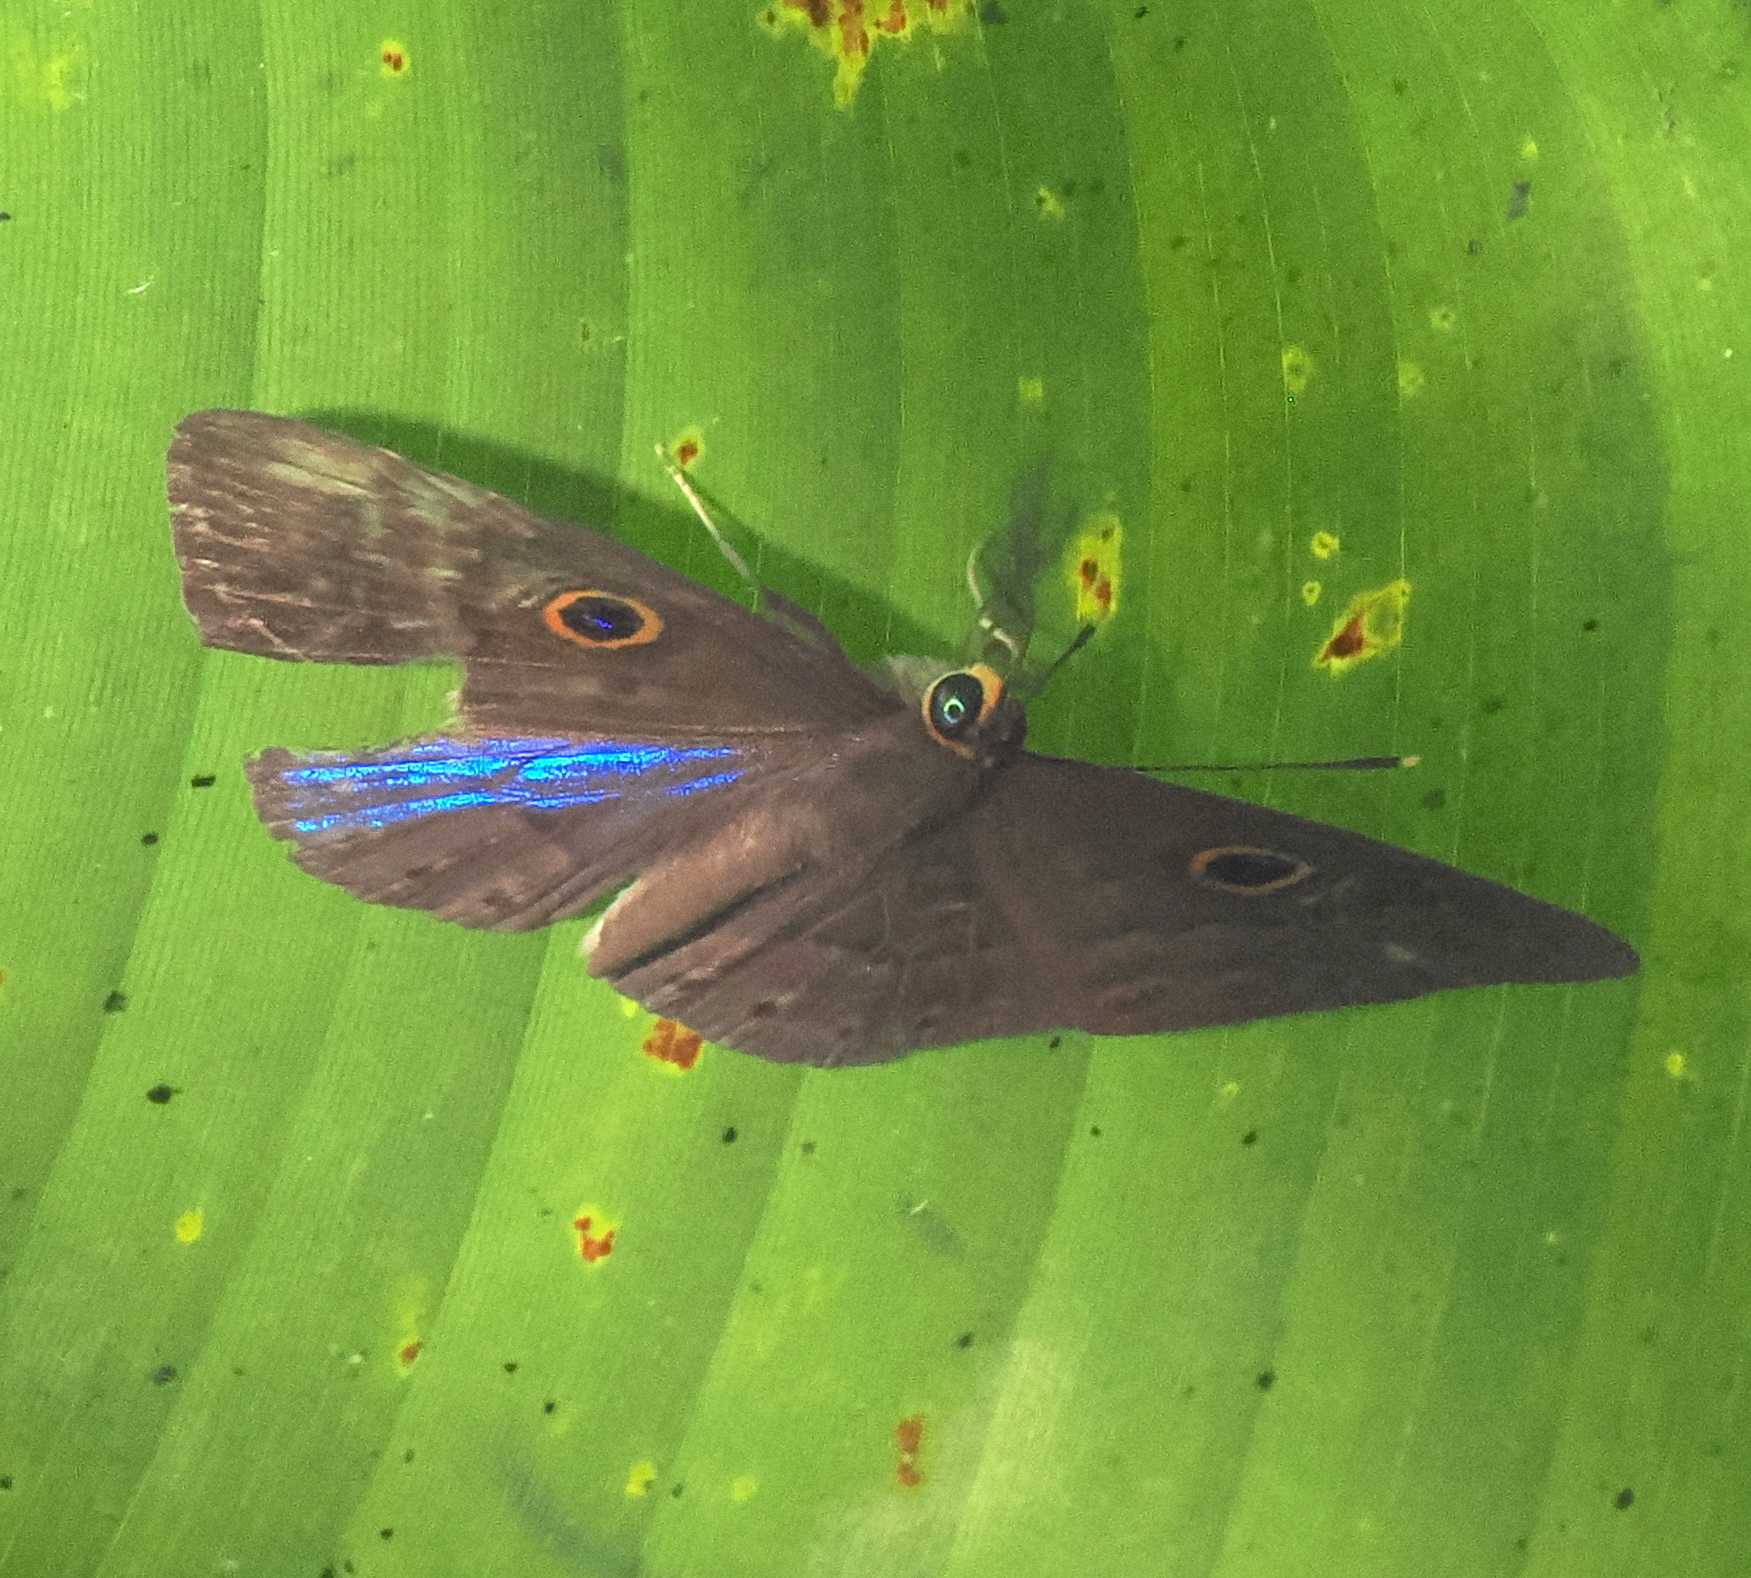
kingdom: Animalia
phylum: Cnidaria
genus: Eurybia
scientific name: Eurybia lycisca
